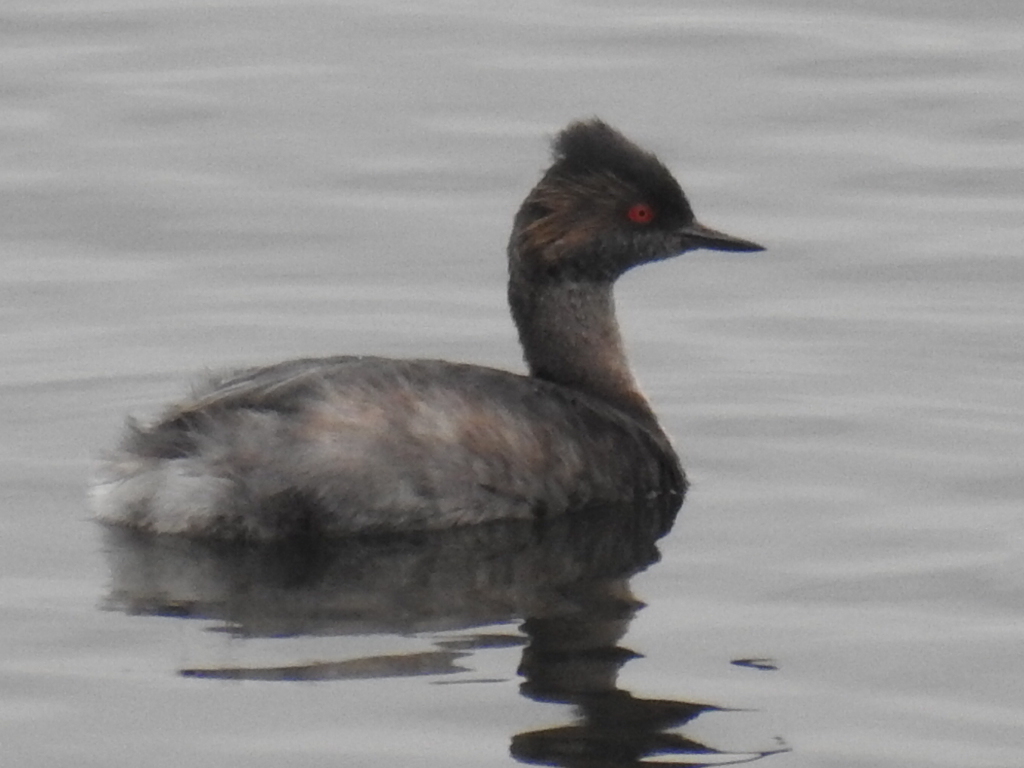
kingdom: Animalia
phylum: Chordata
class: Aves
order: Podicipediformes
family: Podicipedidae
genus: Podiceps
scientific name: Podiceps nigricollis
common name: Black-necked grebe
